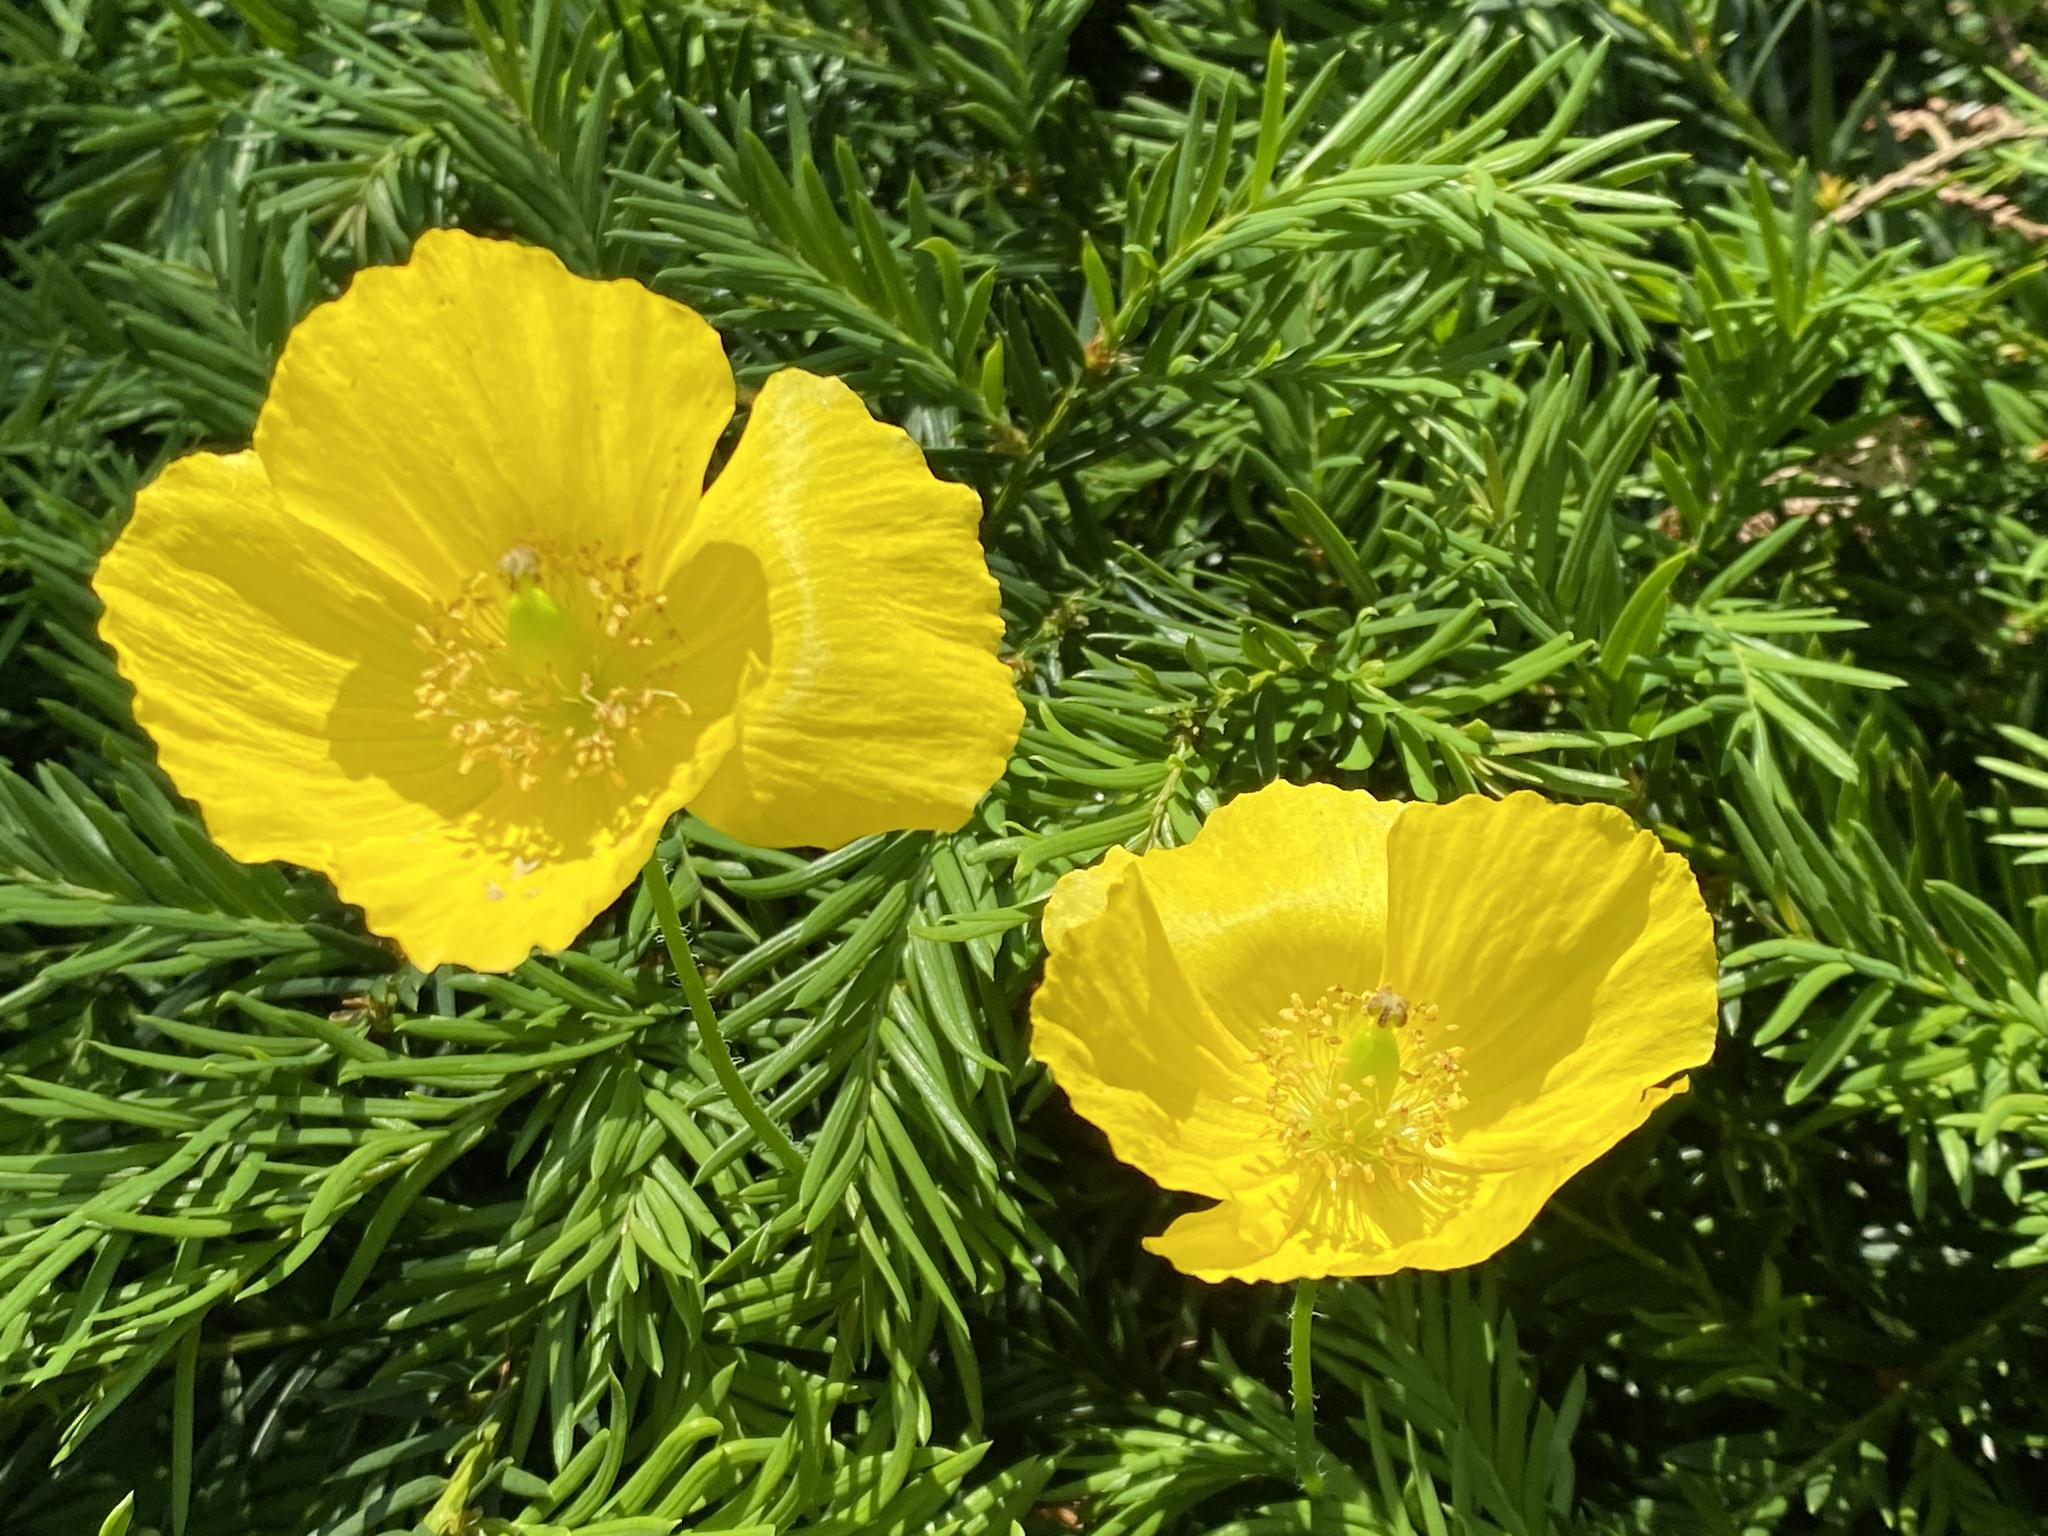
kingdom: Plantae
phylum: Tracheophyta
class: Magnoliopsida
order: Ranunculales
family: Papaveraceae
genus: Papaver
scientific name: Papaver cambricum
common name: Poppy
